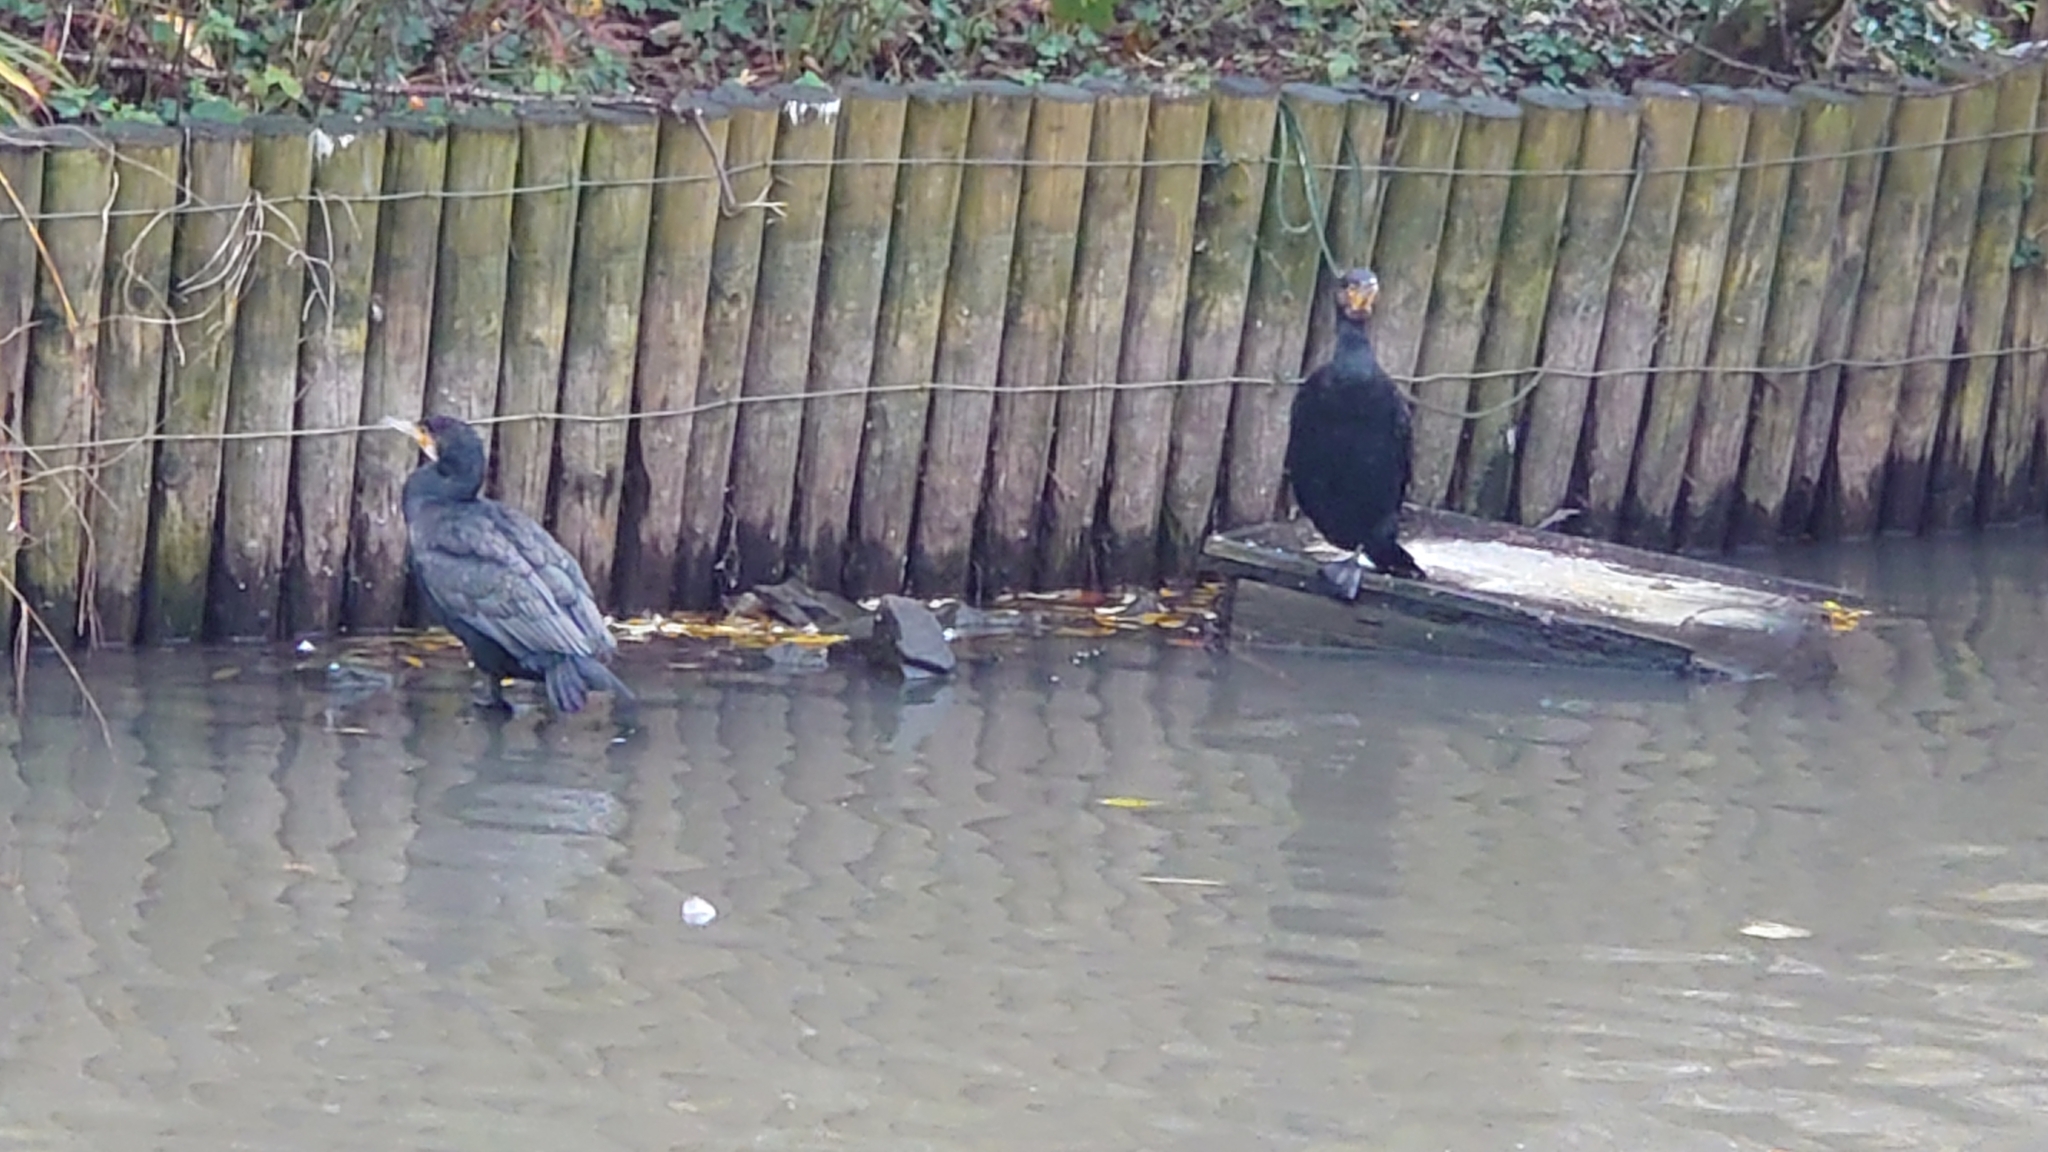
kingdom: Animalia
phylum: Chordata
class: Aves
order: Suliformes
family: Phalacrocoracidae
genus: Phalacrocorax
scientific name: Phalacrocorax carbo
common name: Great cormorant
